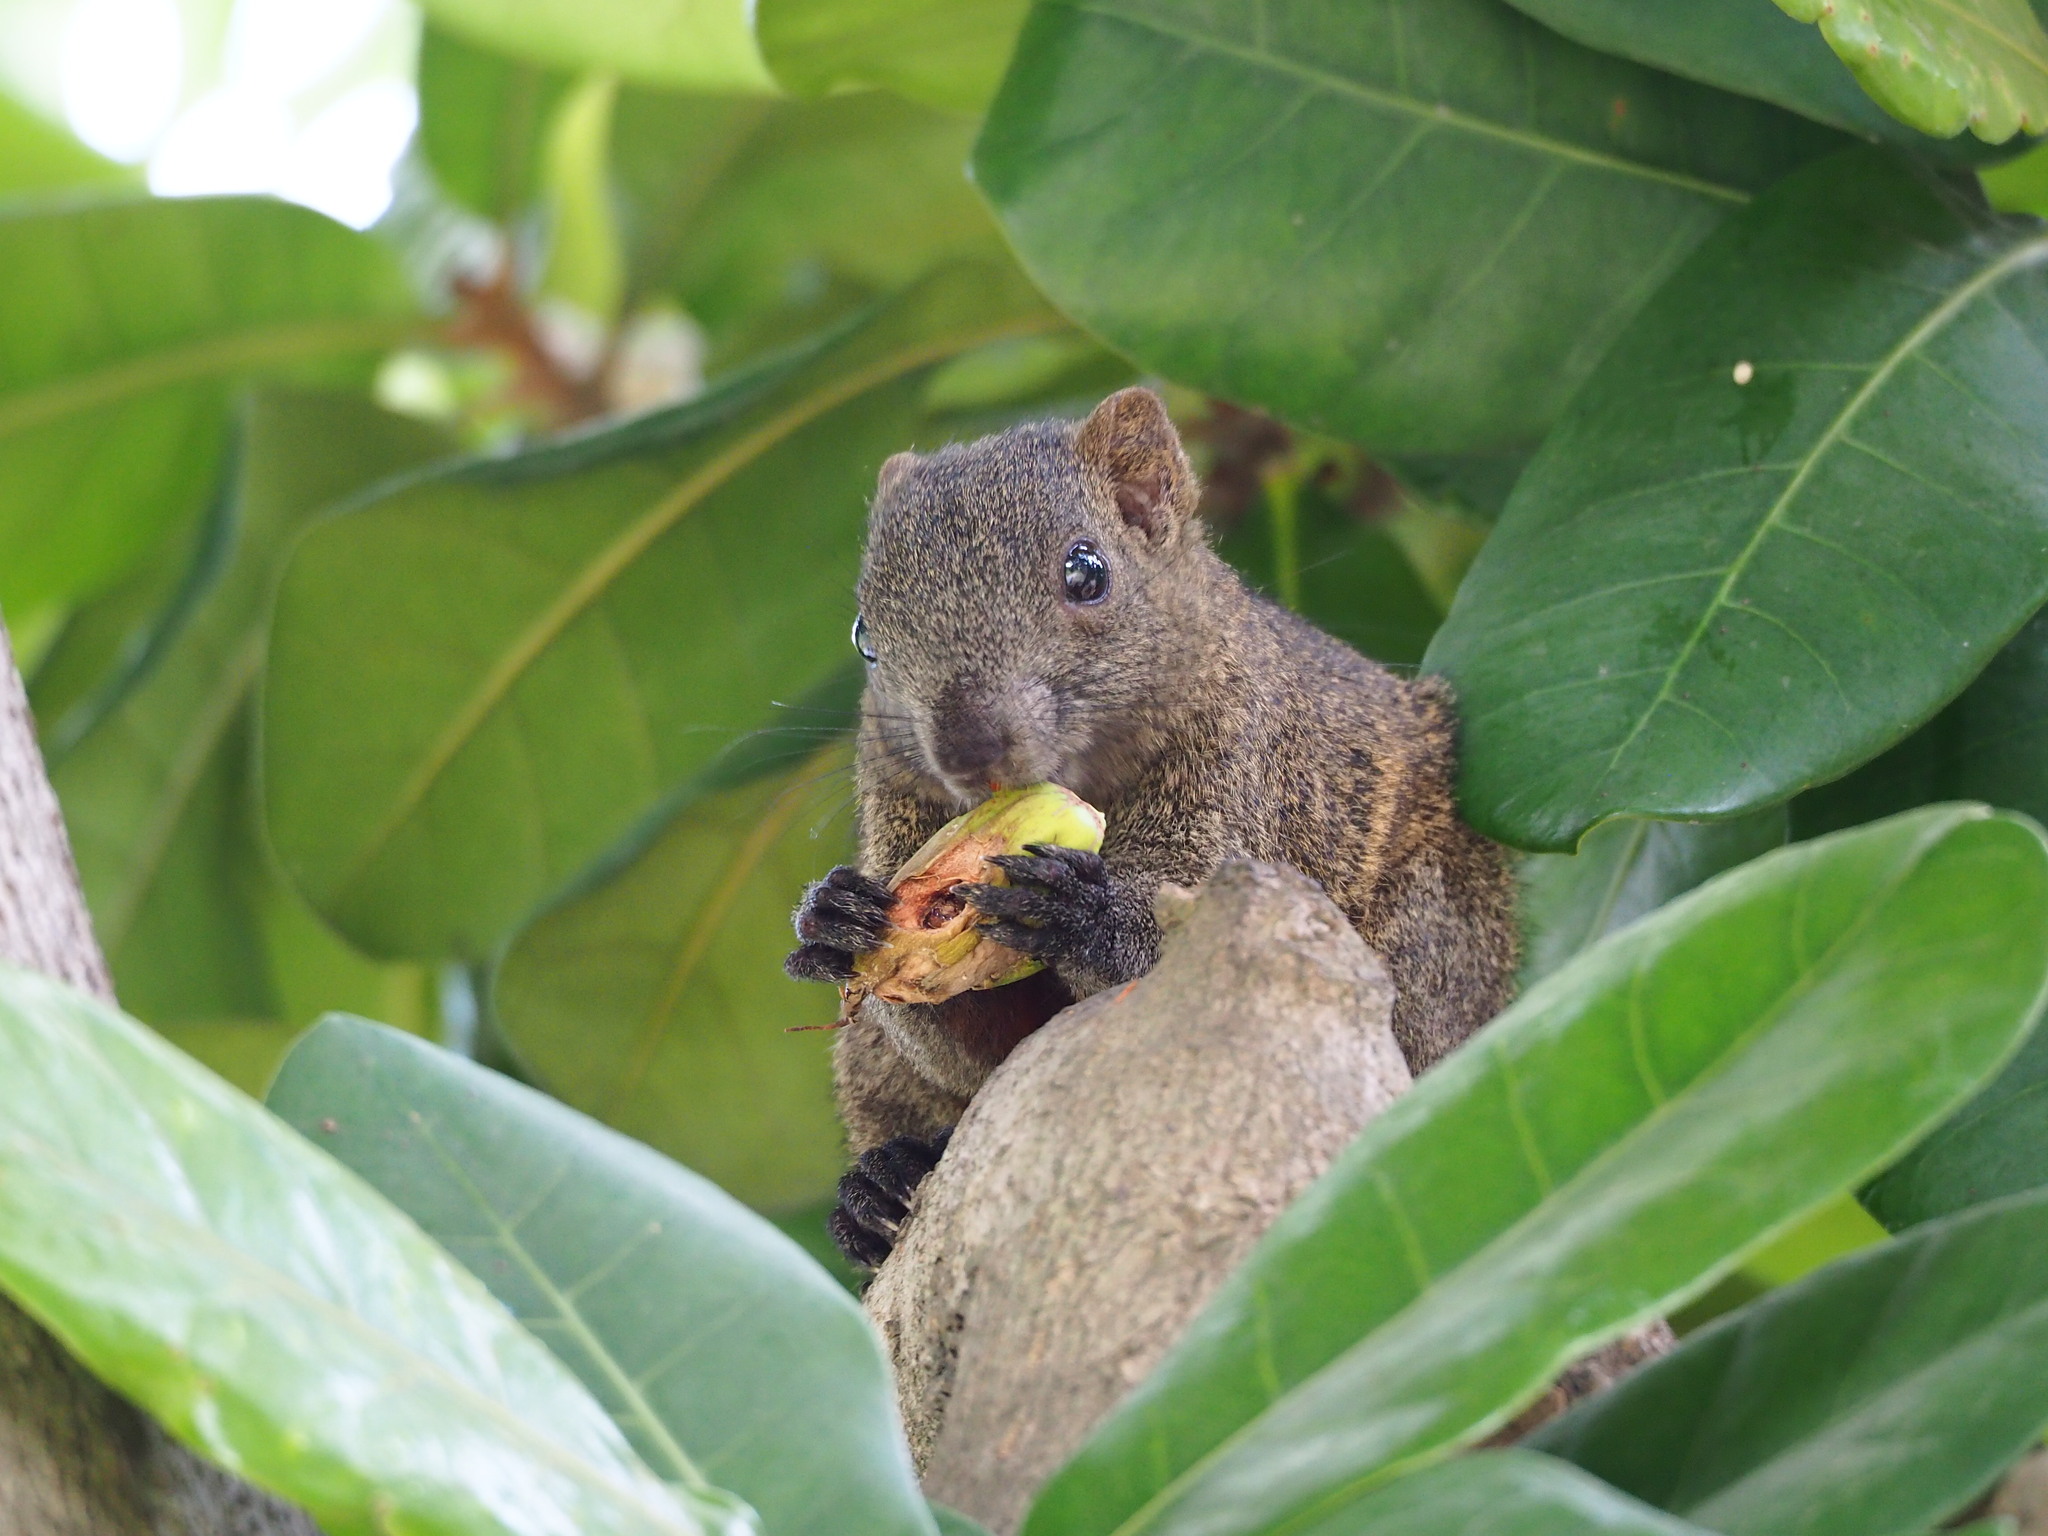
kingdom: Animalia
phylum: Chordata
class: Mammalia
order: Rodentia
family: Sciuridae
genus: Callosciurus
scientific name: Callosciurus erythraeus
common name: Pallas's squirrel
